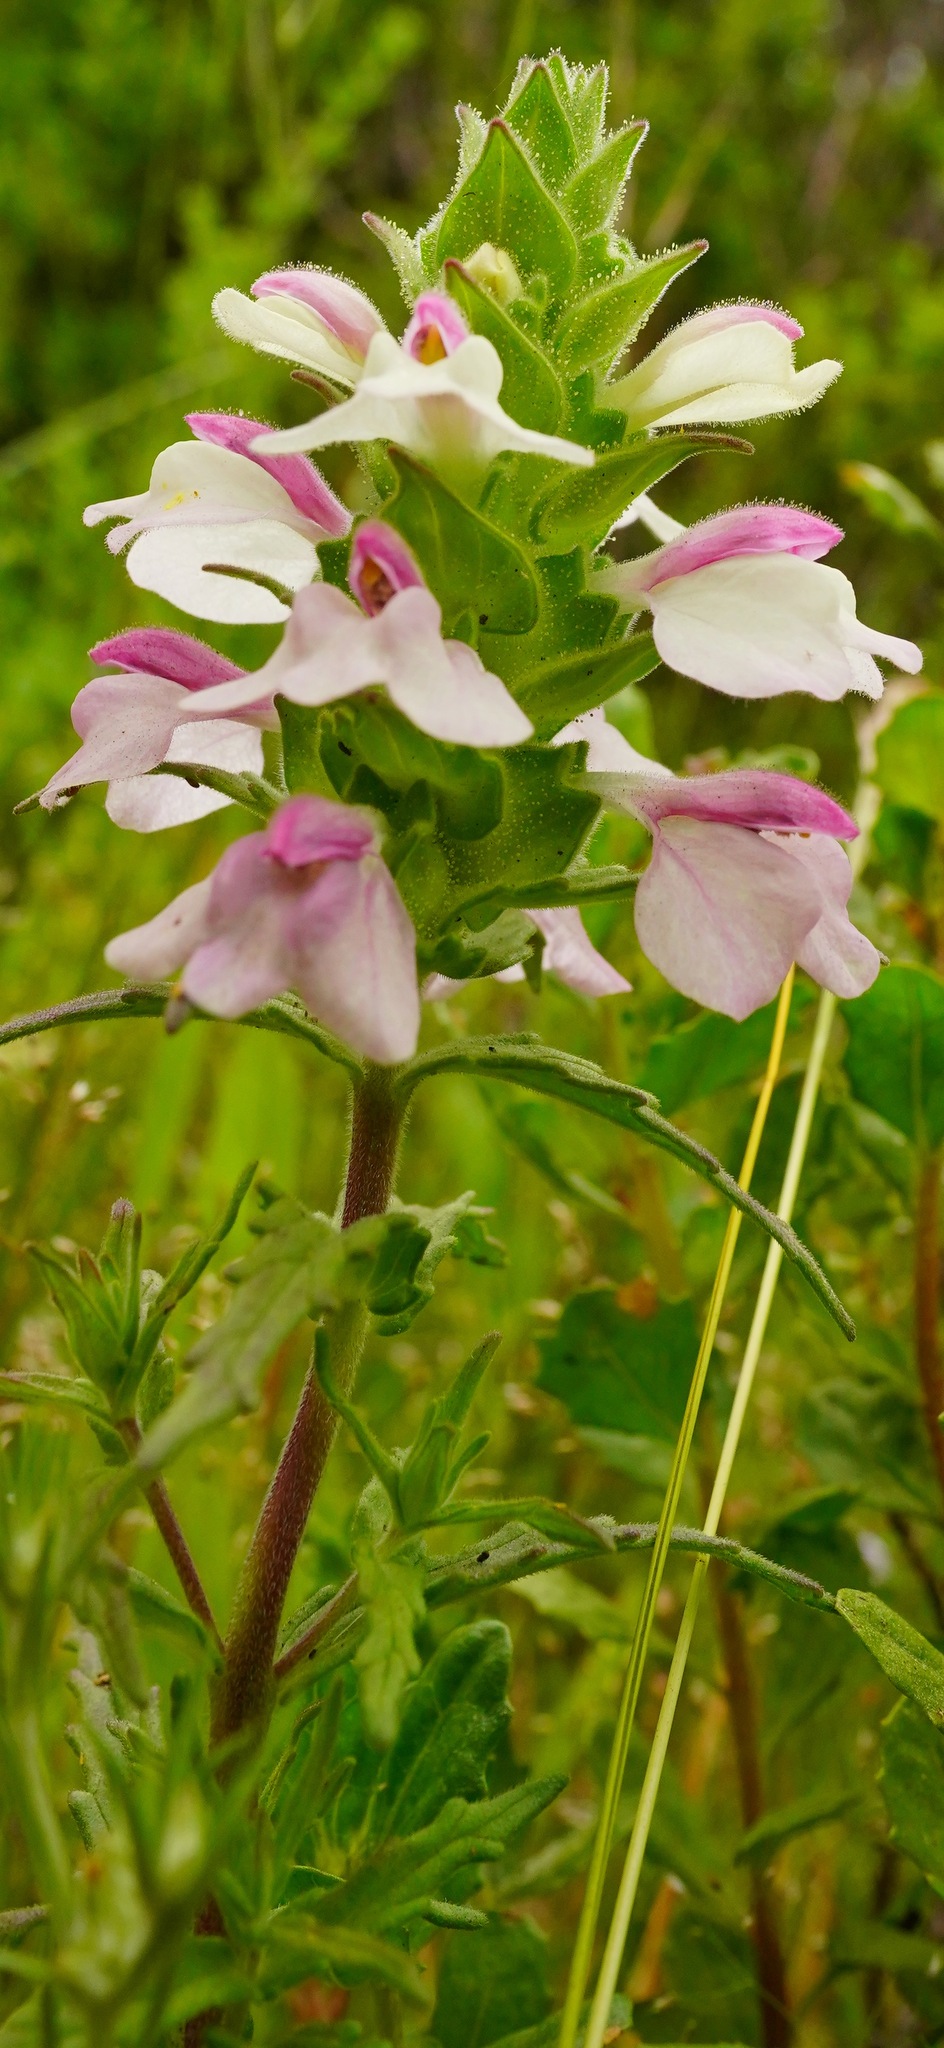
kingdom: Plantae
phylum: Tracheophyta
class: Magnoliopsida
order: Lamiales
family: Orobanchaceae
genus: Bellardia
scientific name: Bellardia trixago
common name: Mediterranean lineseed
